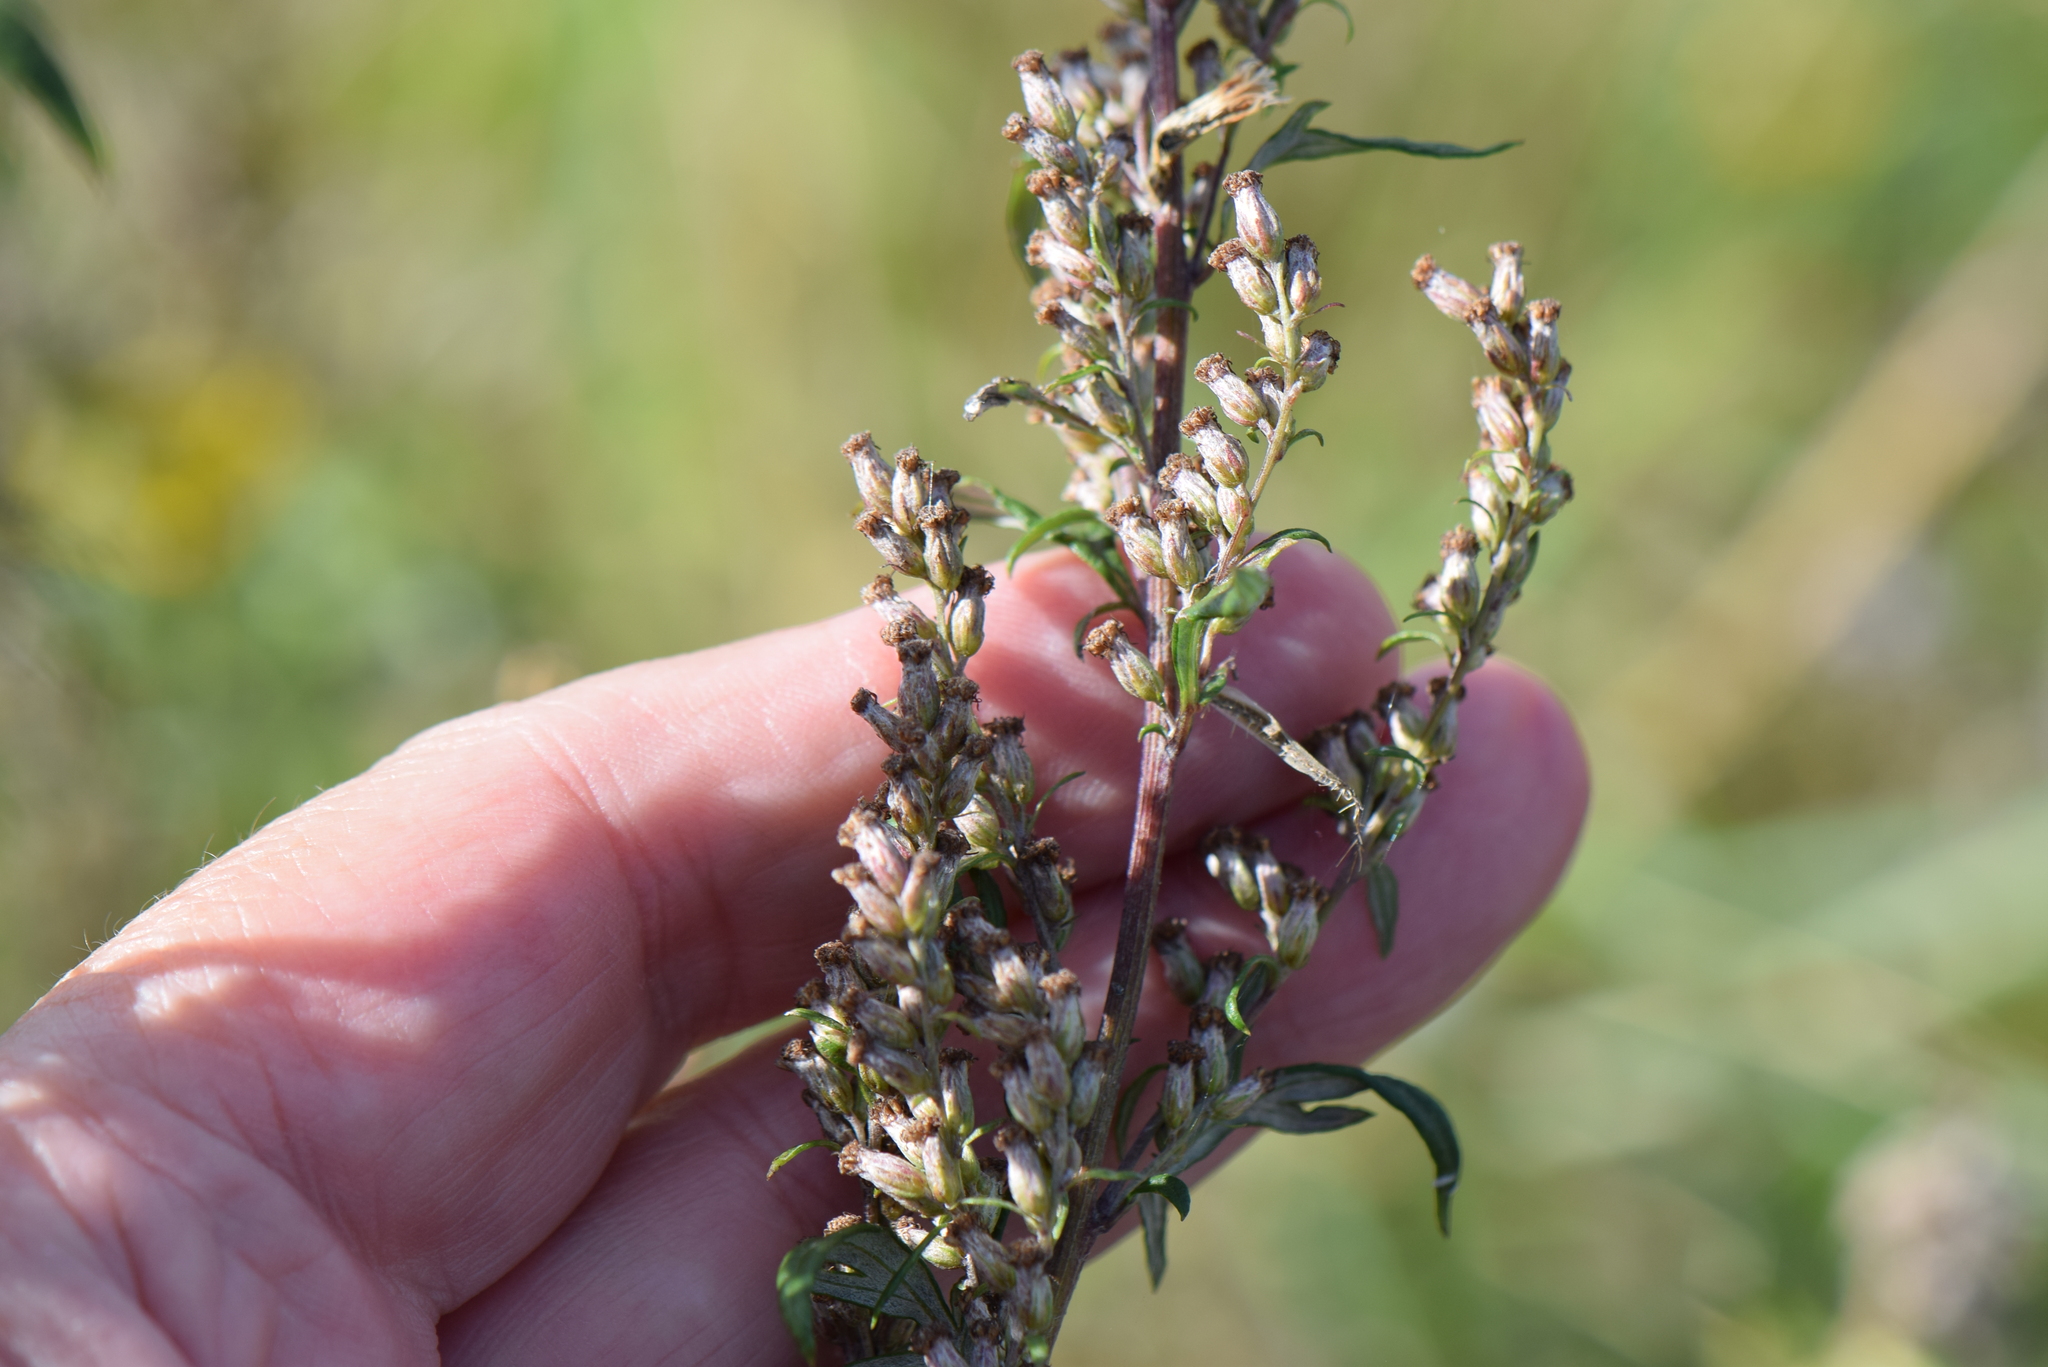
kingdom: Plantae
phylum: Tracheophyta
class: Magnoliopsida
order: Asterales
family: Asteraceae
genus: Artemisia
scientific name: Artemisia vulgaris
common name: Mugwort
